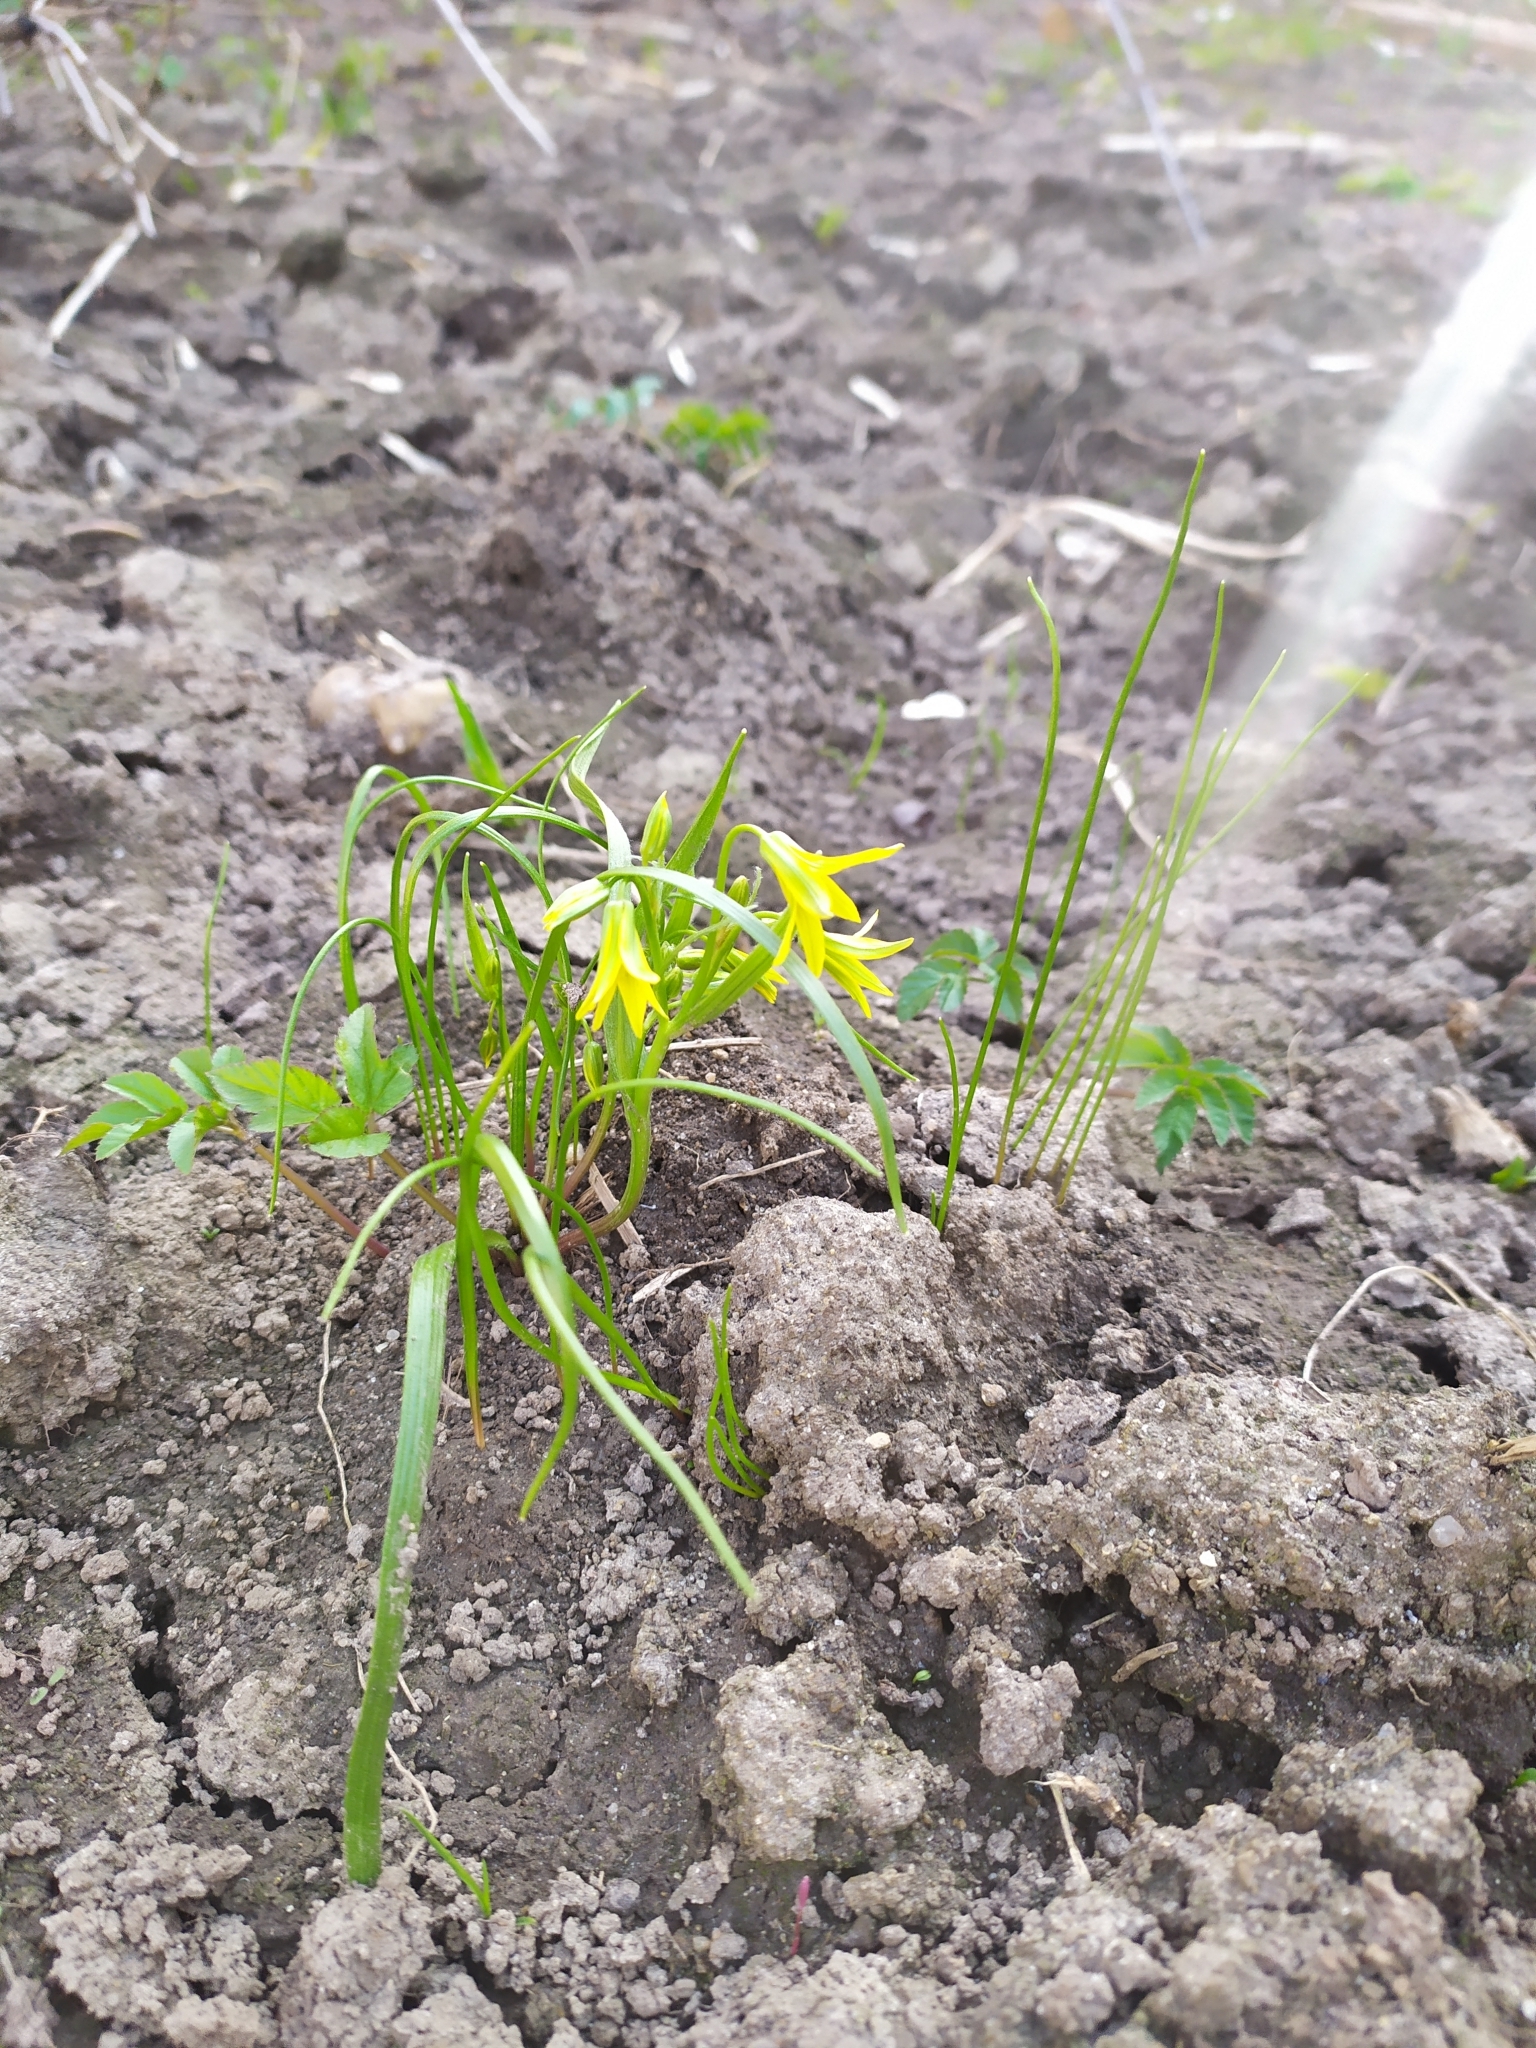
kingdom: Plantae
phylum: Tracheophyta
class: Liliopsida
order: Liliales
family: Liliaceae
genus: Gagea
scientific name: Gagea minima
